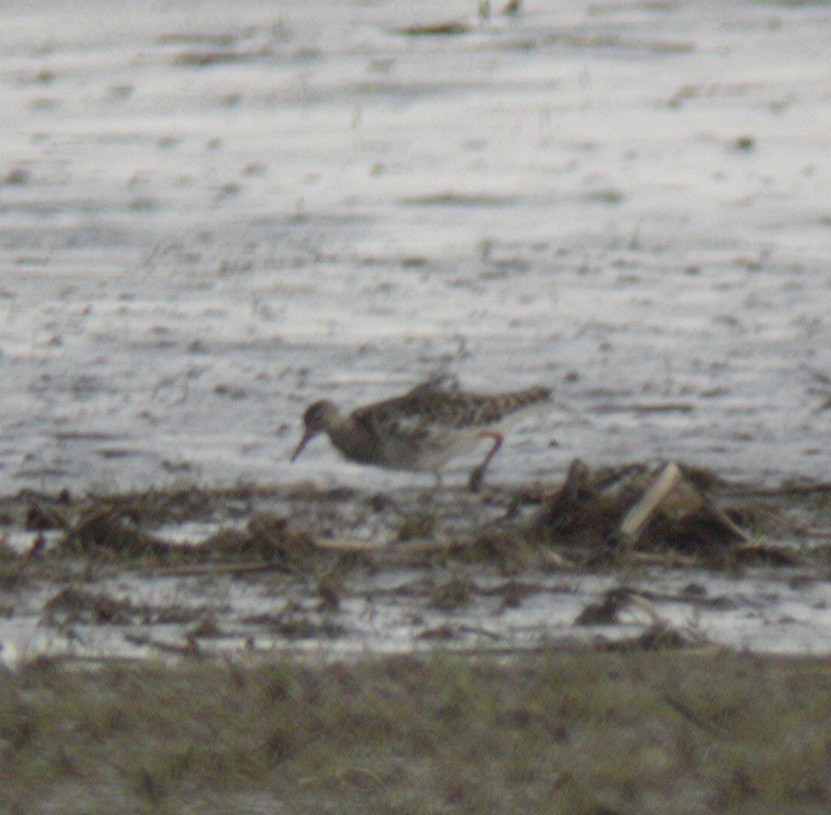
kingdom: Animalia
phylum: Chordata
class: Aves
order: Charadriiformes
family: Scolopacidae
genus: Calidris
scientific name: Calidris pugnax
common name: Ruff
